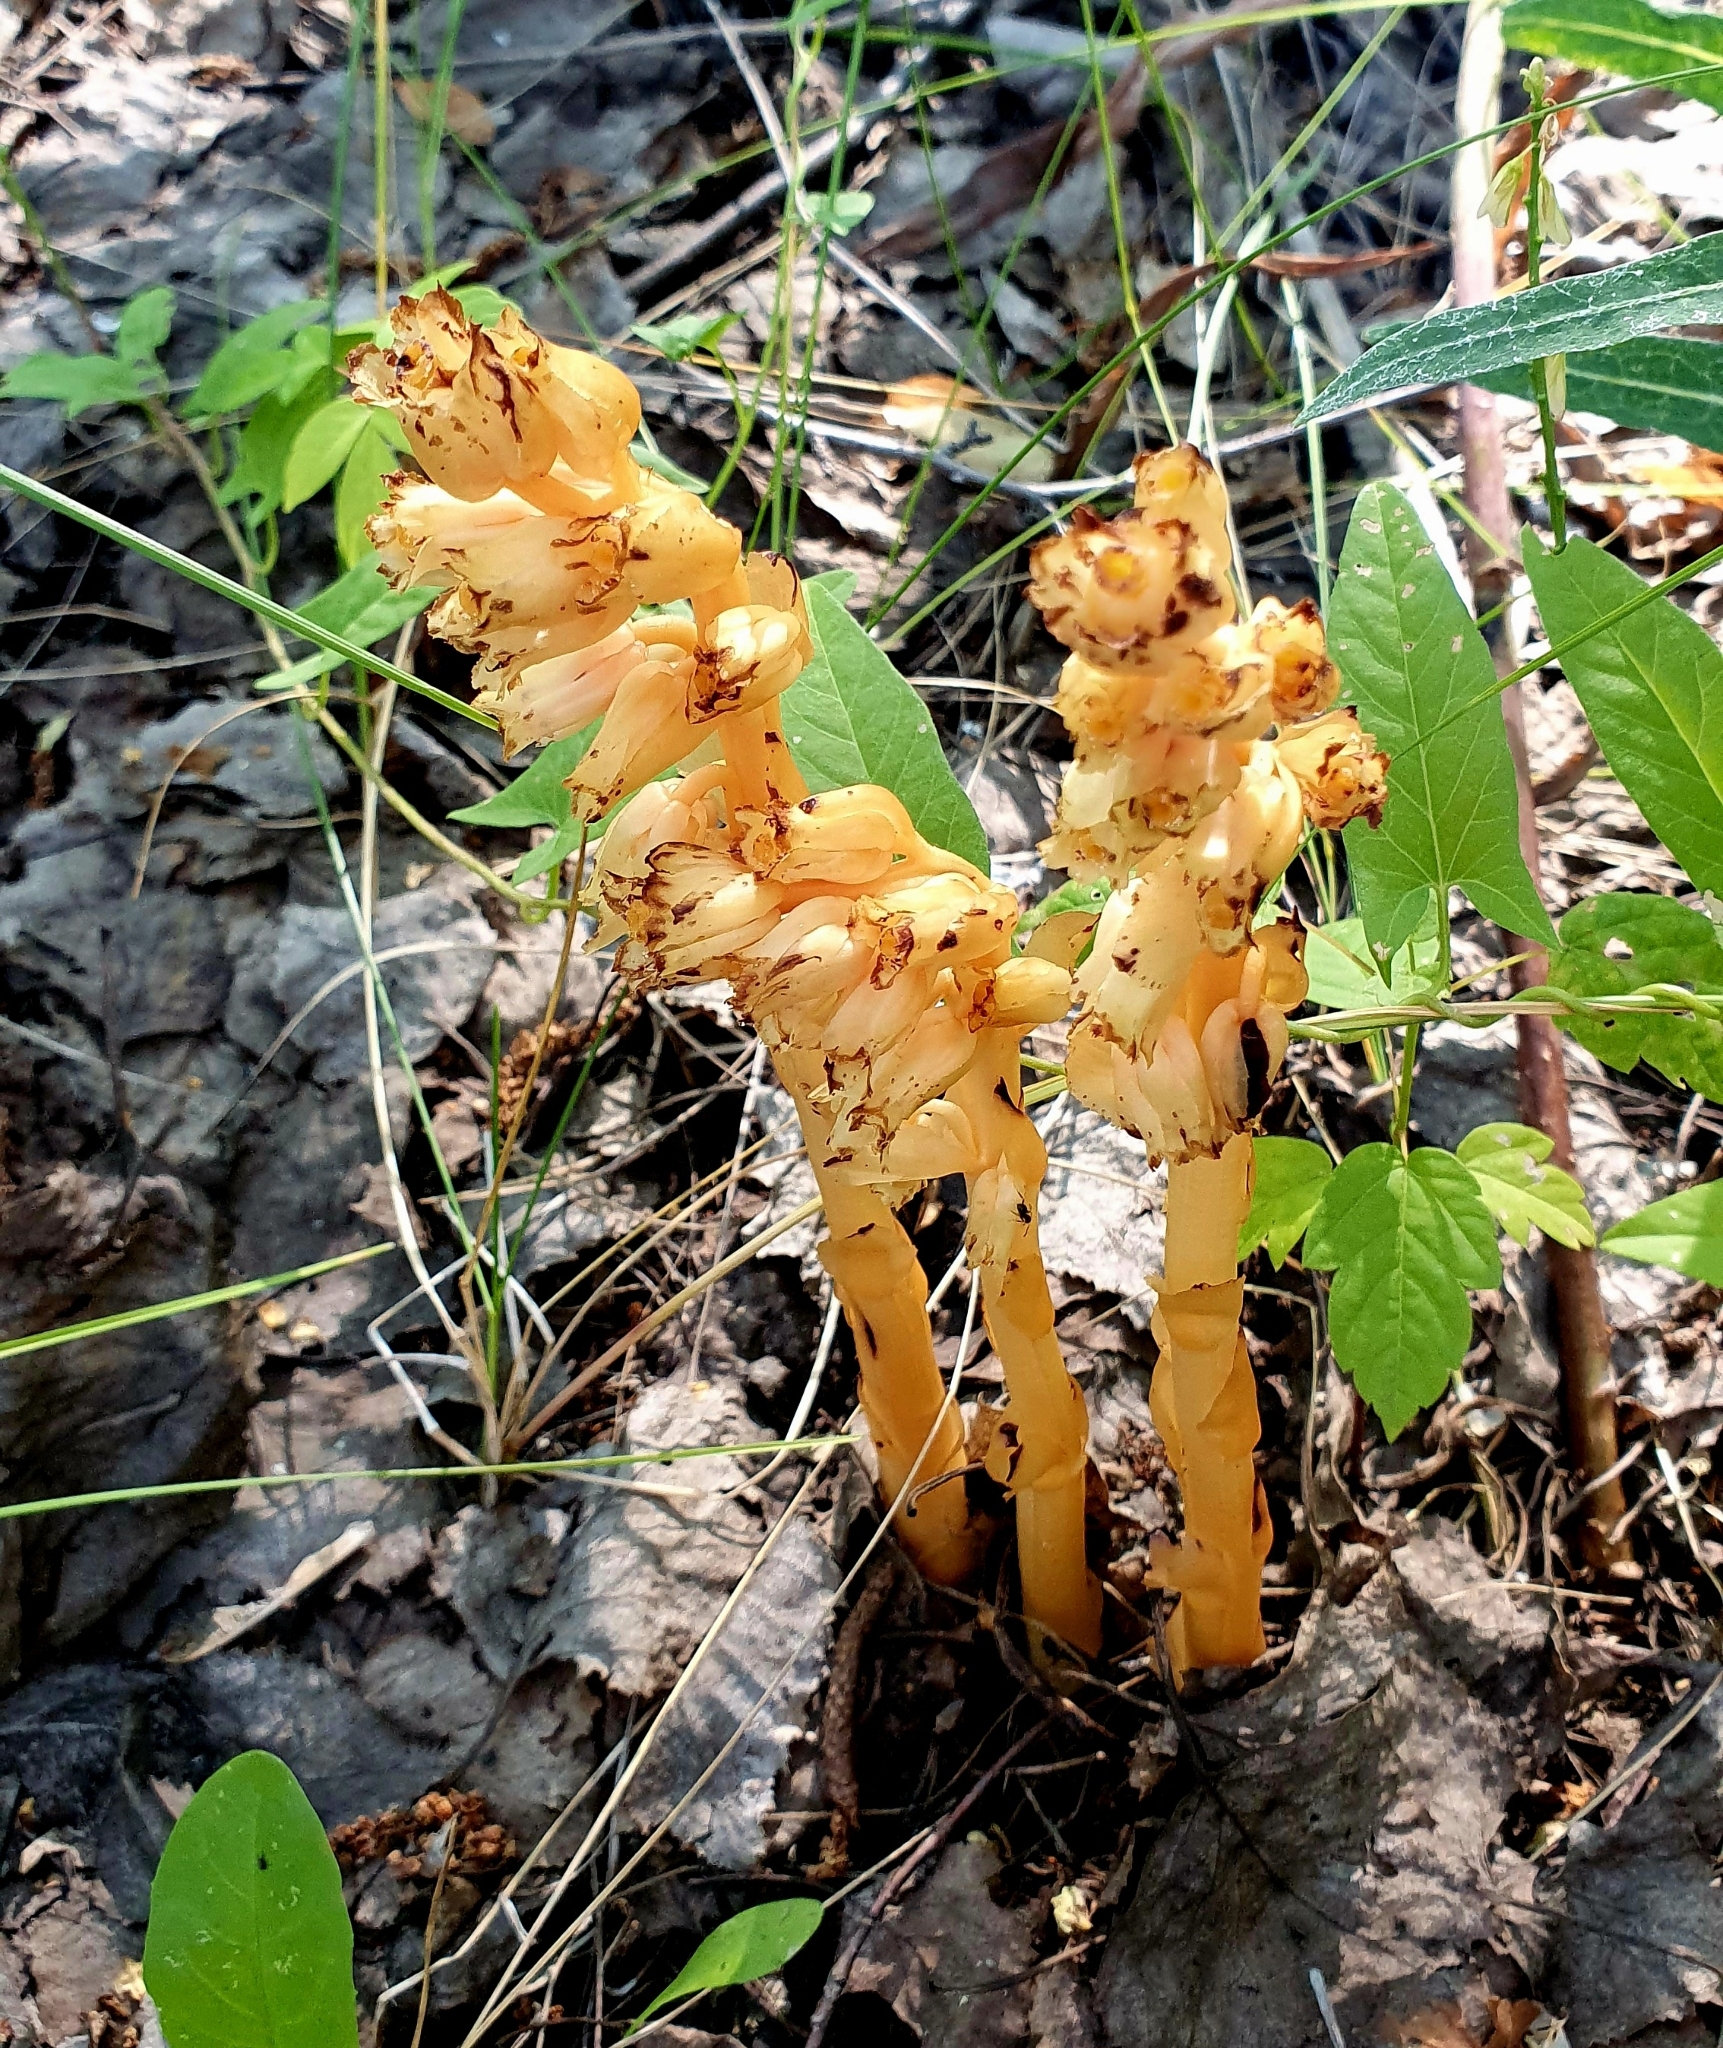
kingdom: Plantae
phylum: Tracheophyta
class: Magnoliopsida
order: Ericales
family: Ericaceae
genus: Hypopitys
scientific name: Hypopitys monotropa
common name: Yellow bird's-nest
